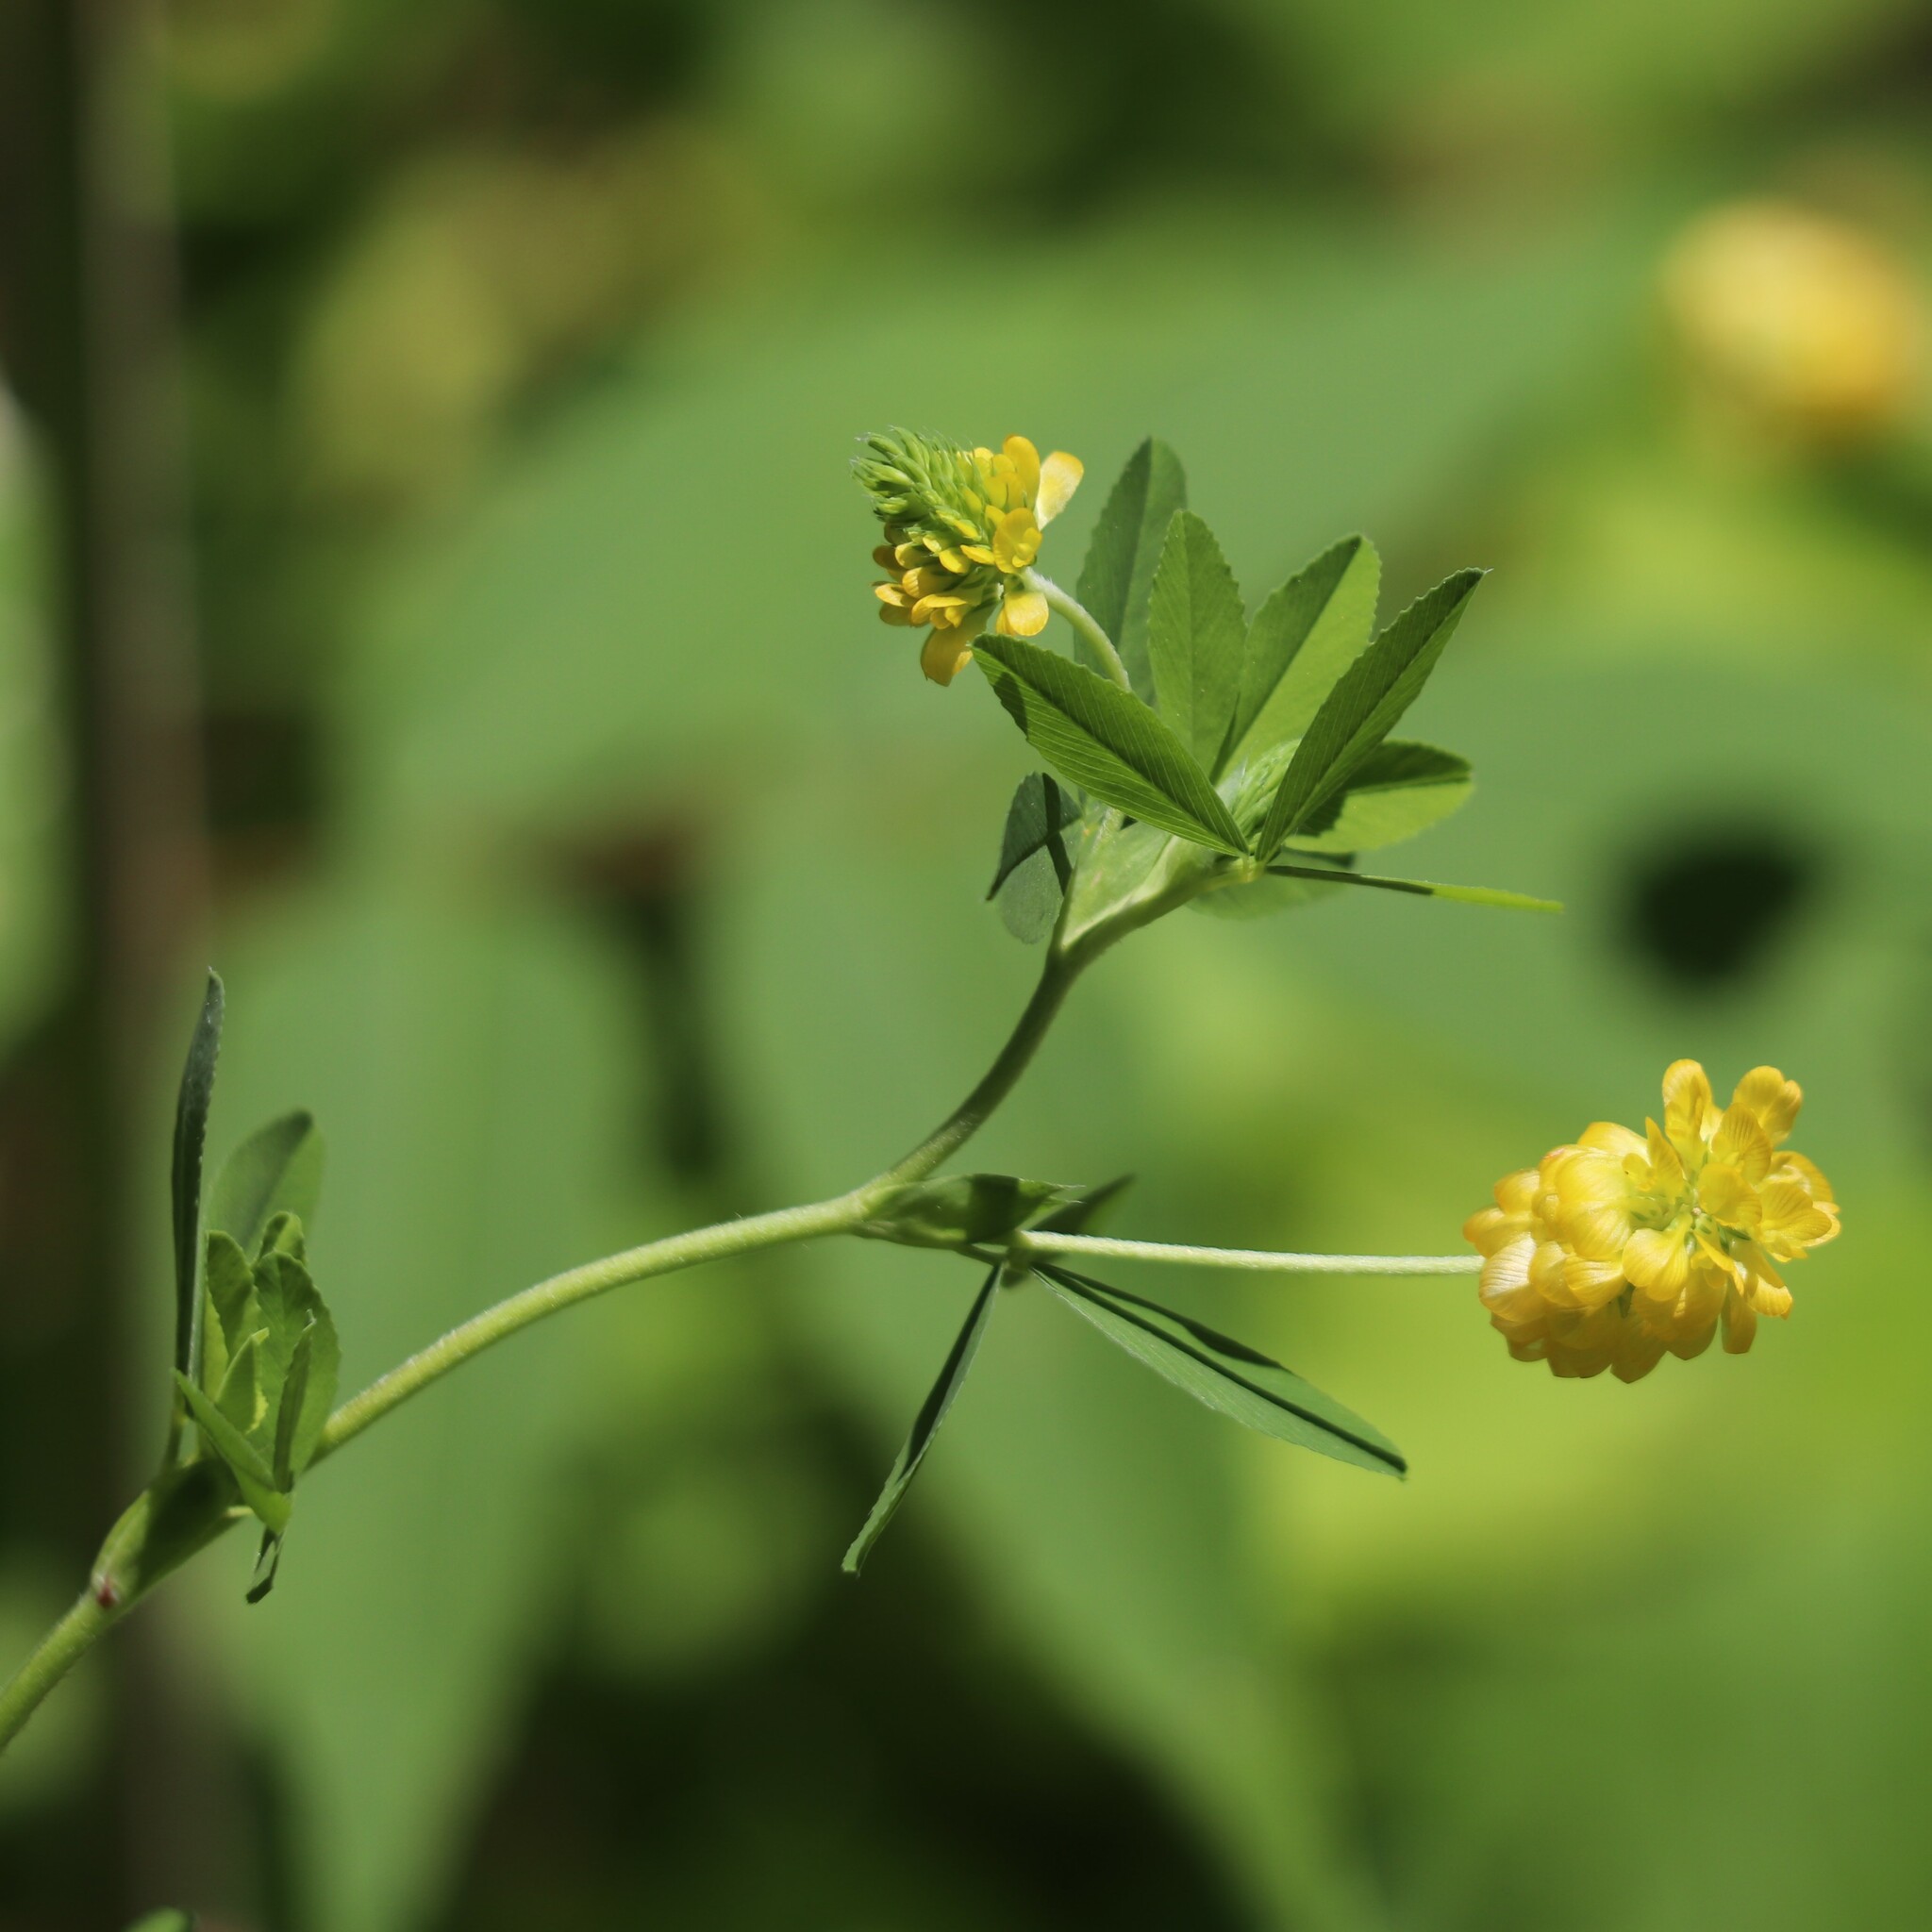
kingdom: Plantae
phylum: Tracheophyta
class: Magnoliopsida
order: Fabales
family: Fabaceae
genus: Trifolium
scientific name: Trifolium aureum
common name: Golden clover
